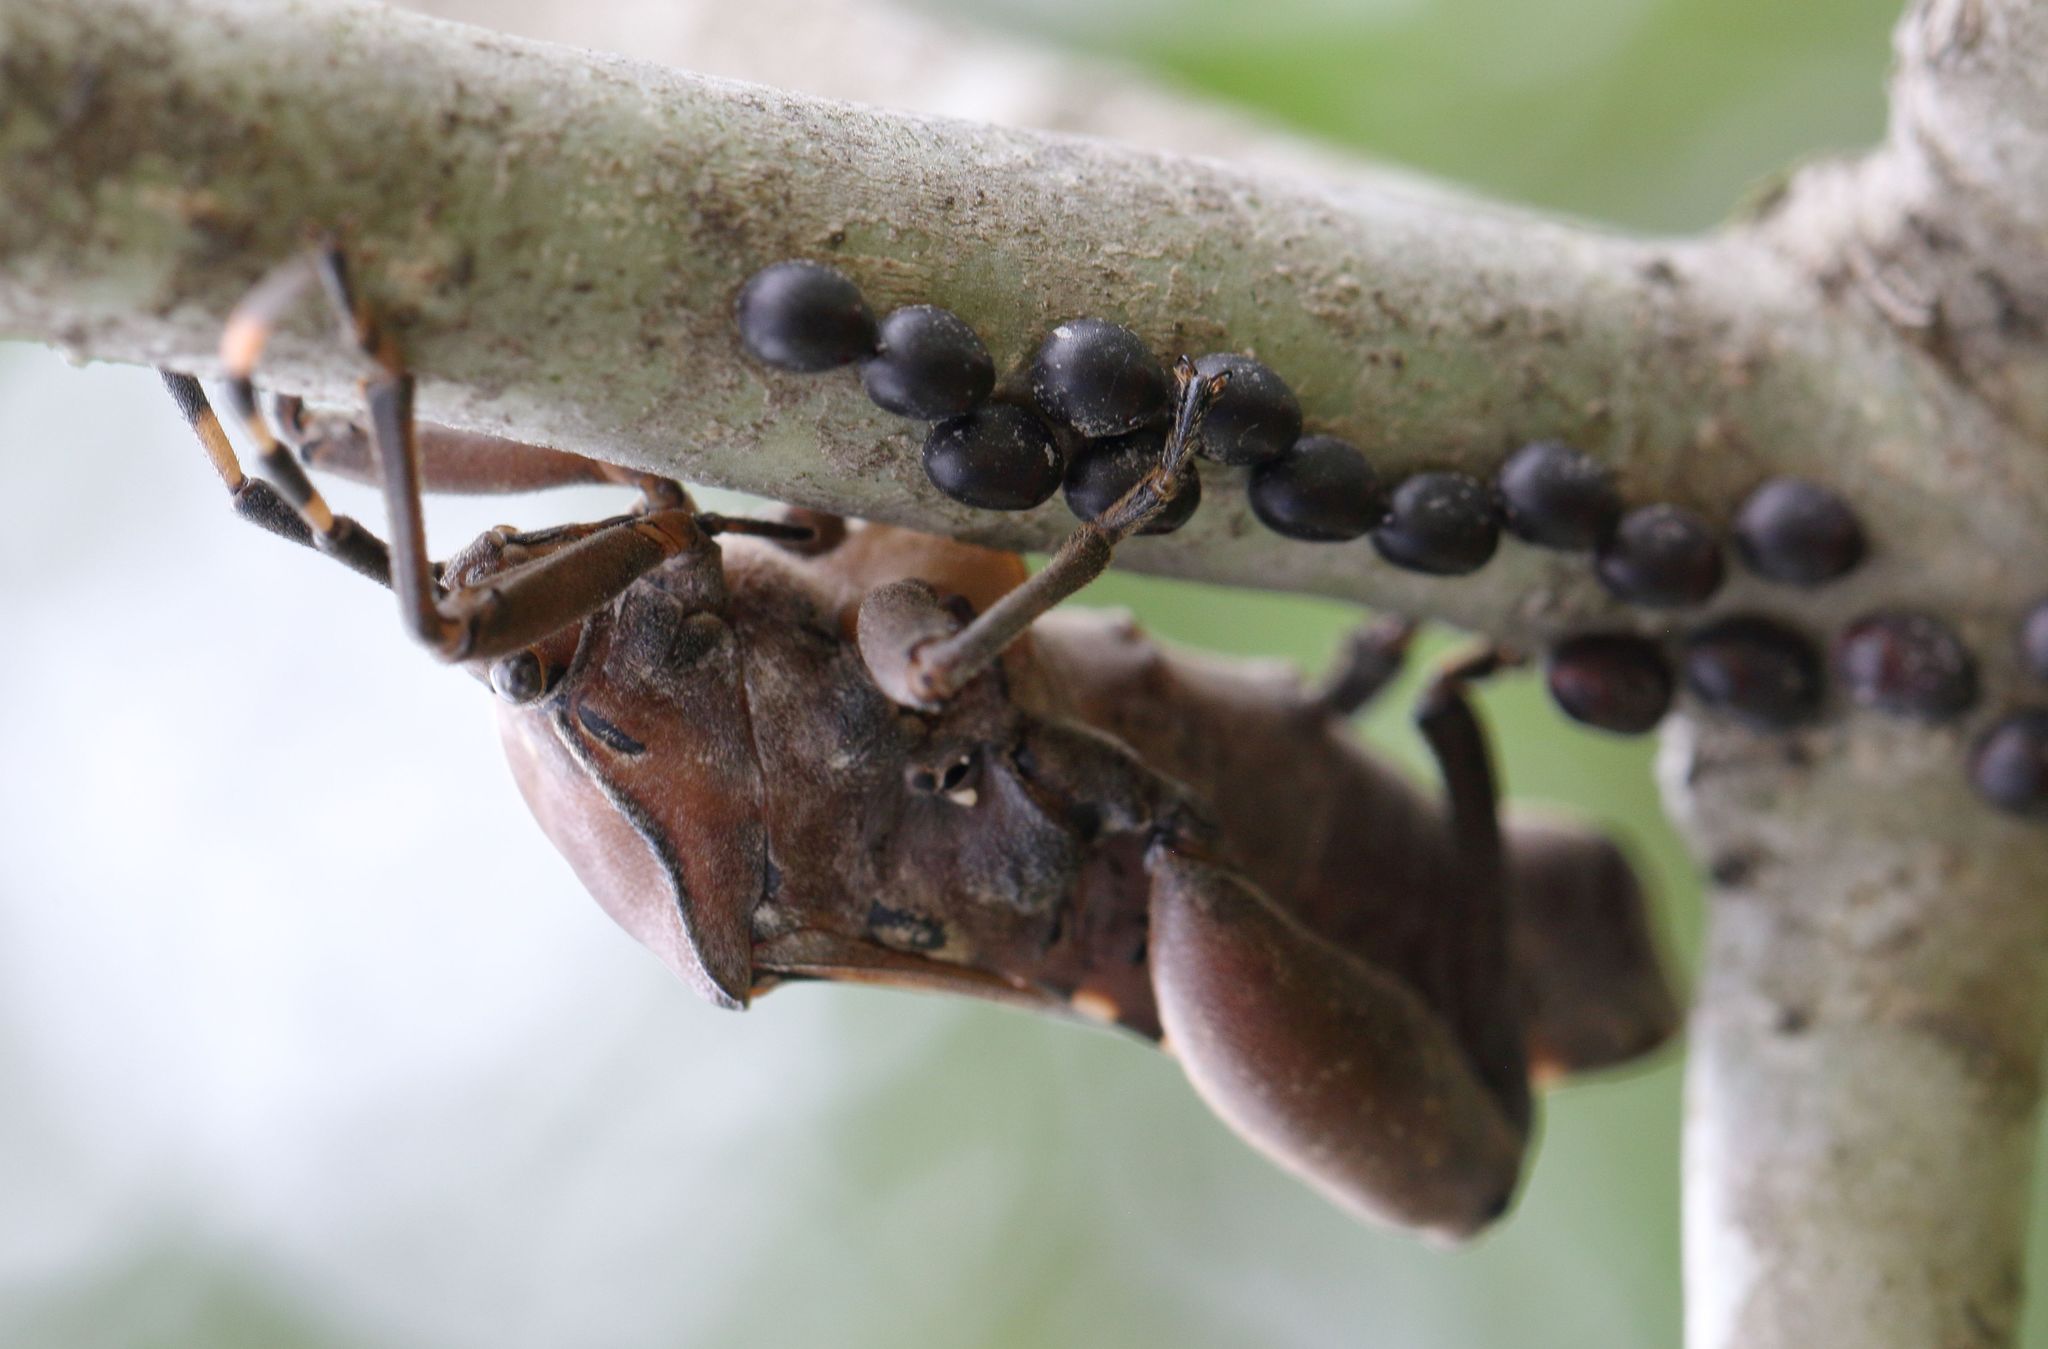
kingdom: Animalia
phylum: Arthropoda
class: Insecta
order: Hemiptera
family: Coreidae
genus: Carlisis
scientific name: Carlisis wahlbergi
